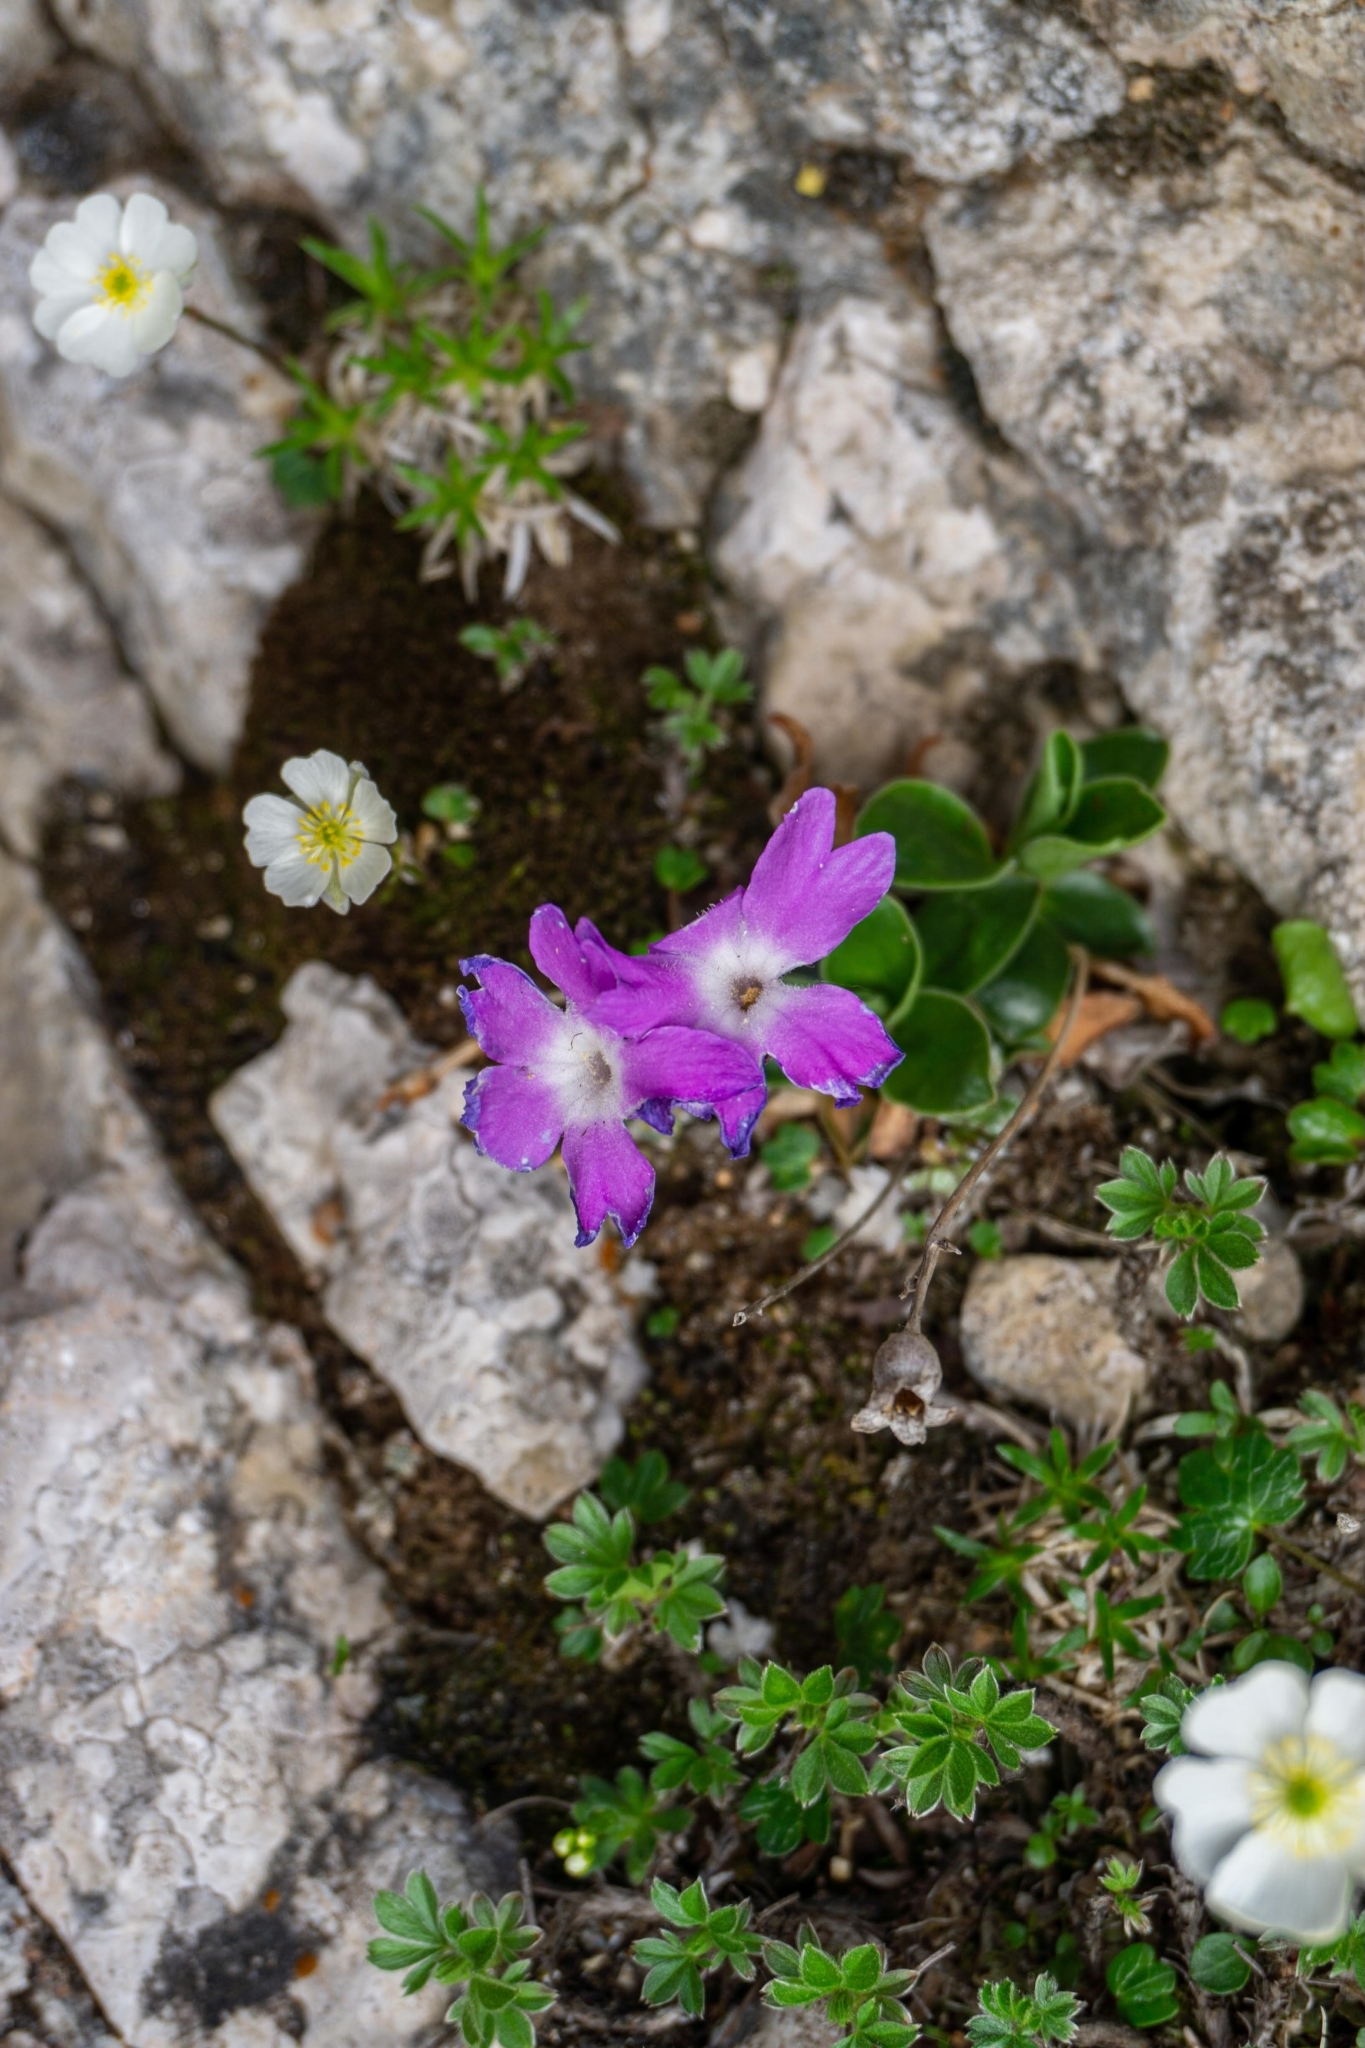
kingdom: Plantae
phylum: Tracheophyta
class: Magnoliopsida
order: Ericales
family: Primulaceae
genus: Primula
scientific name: Primula clusiana
